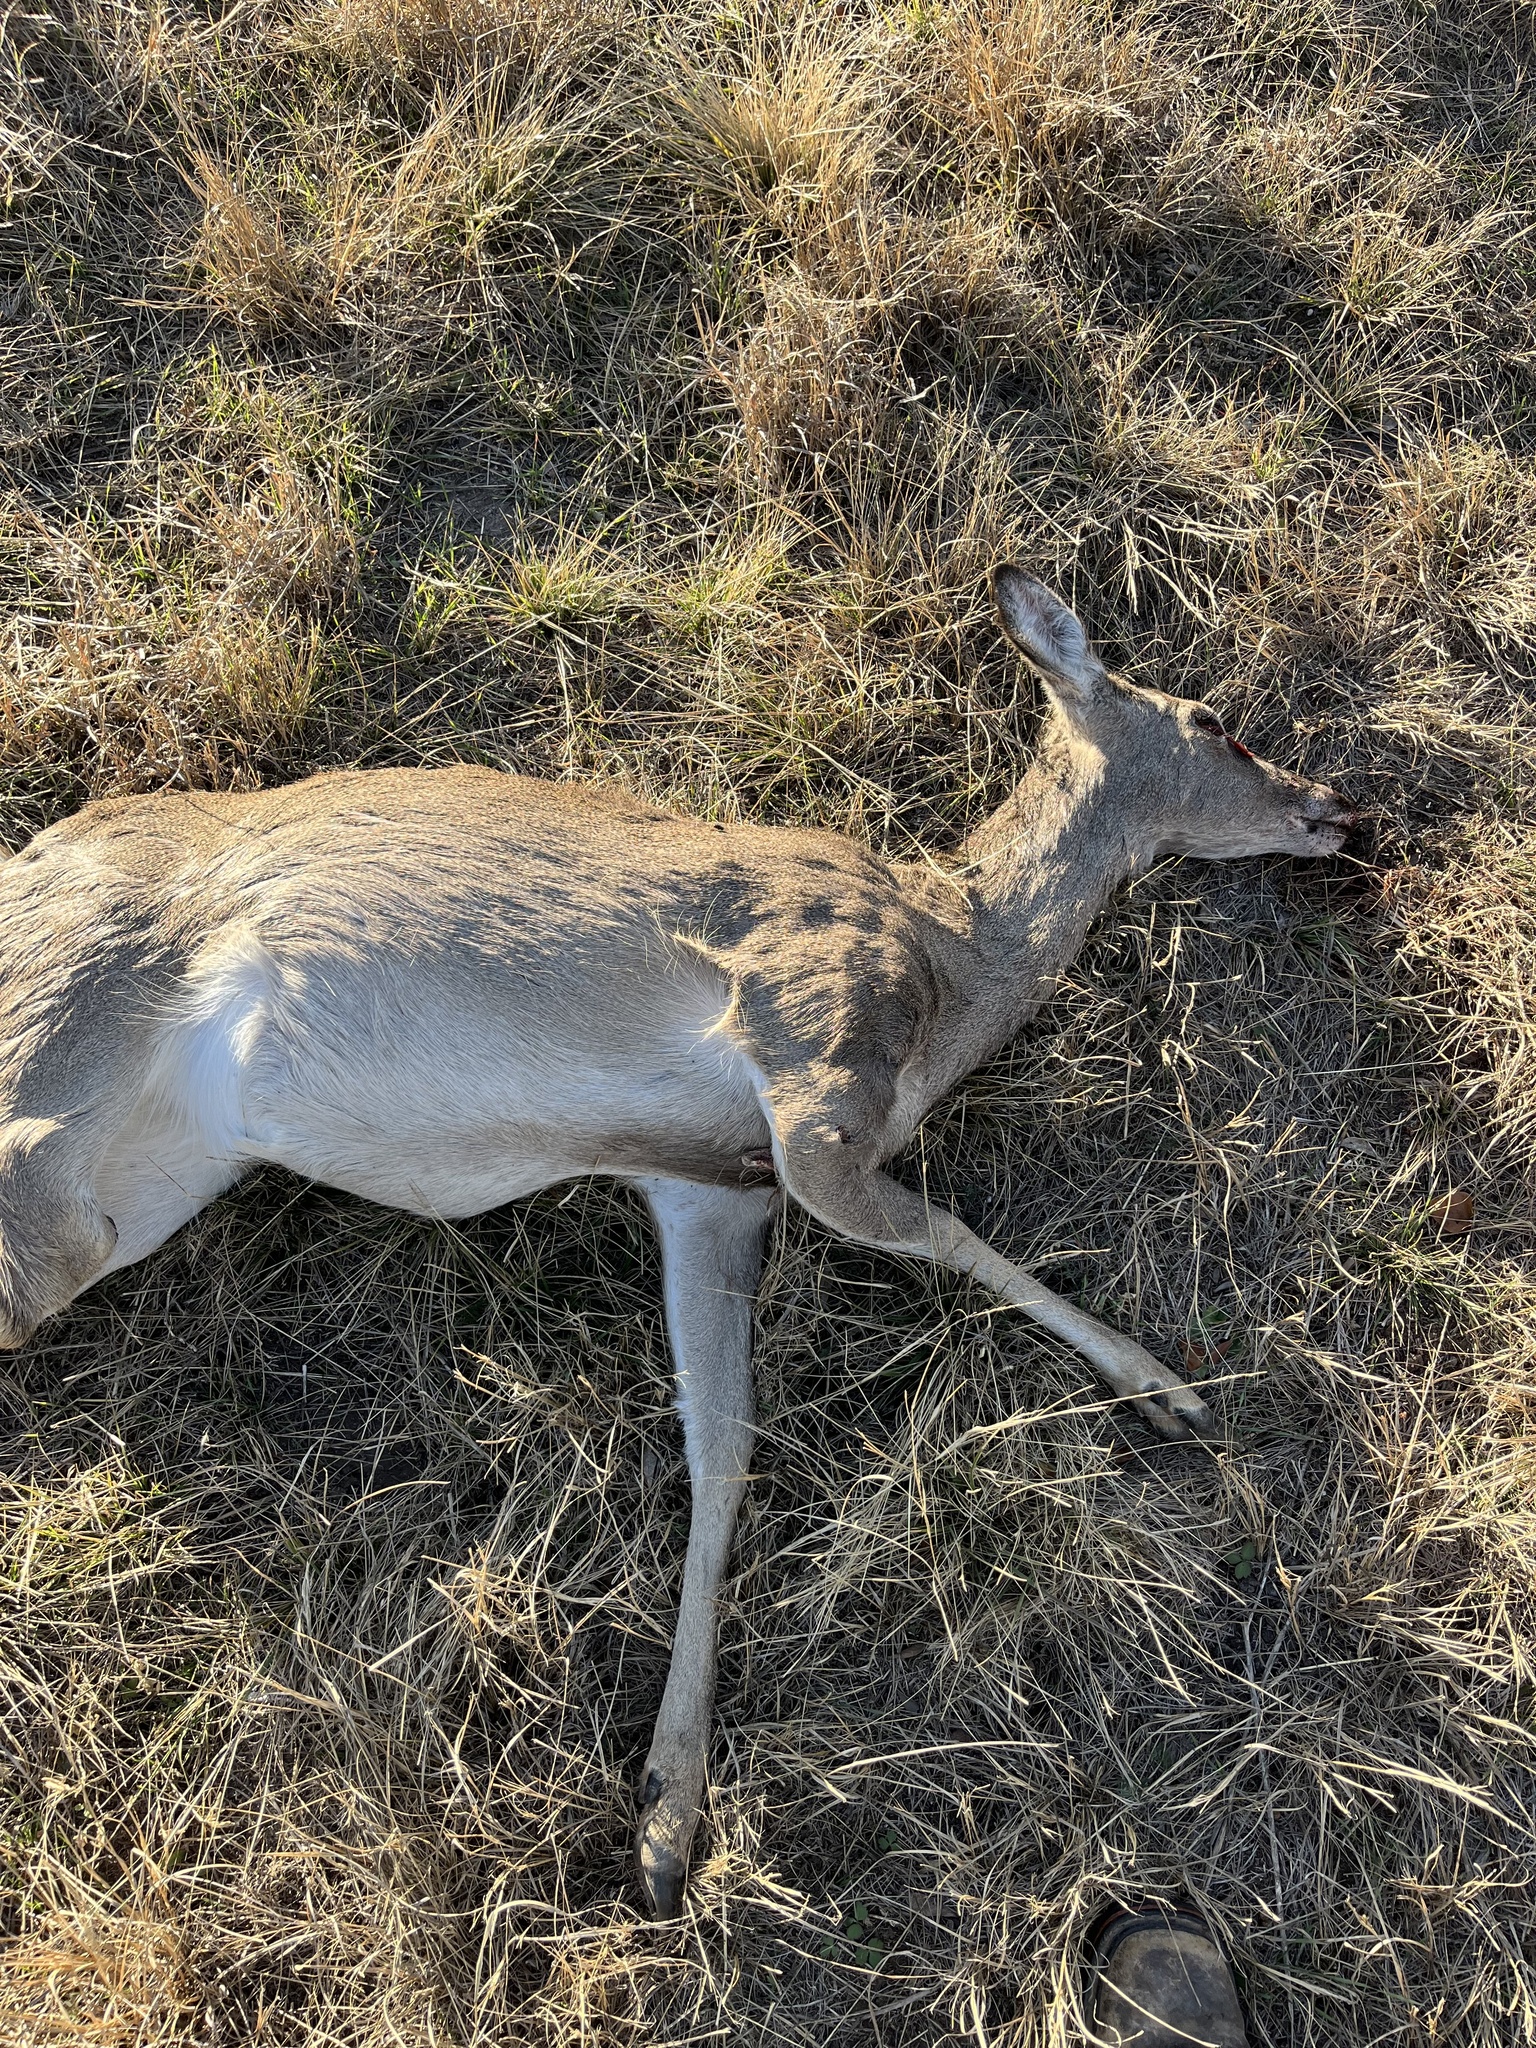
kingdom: Animalia
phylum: Chordata
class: Mammalia
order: Artiodactyla
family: Cervidae
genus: Odocoileus
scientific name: Odocoileus virginianus
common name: White-tailed deer
